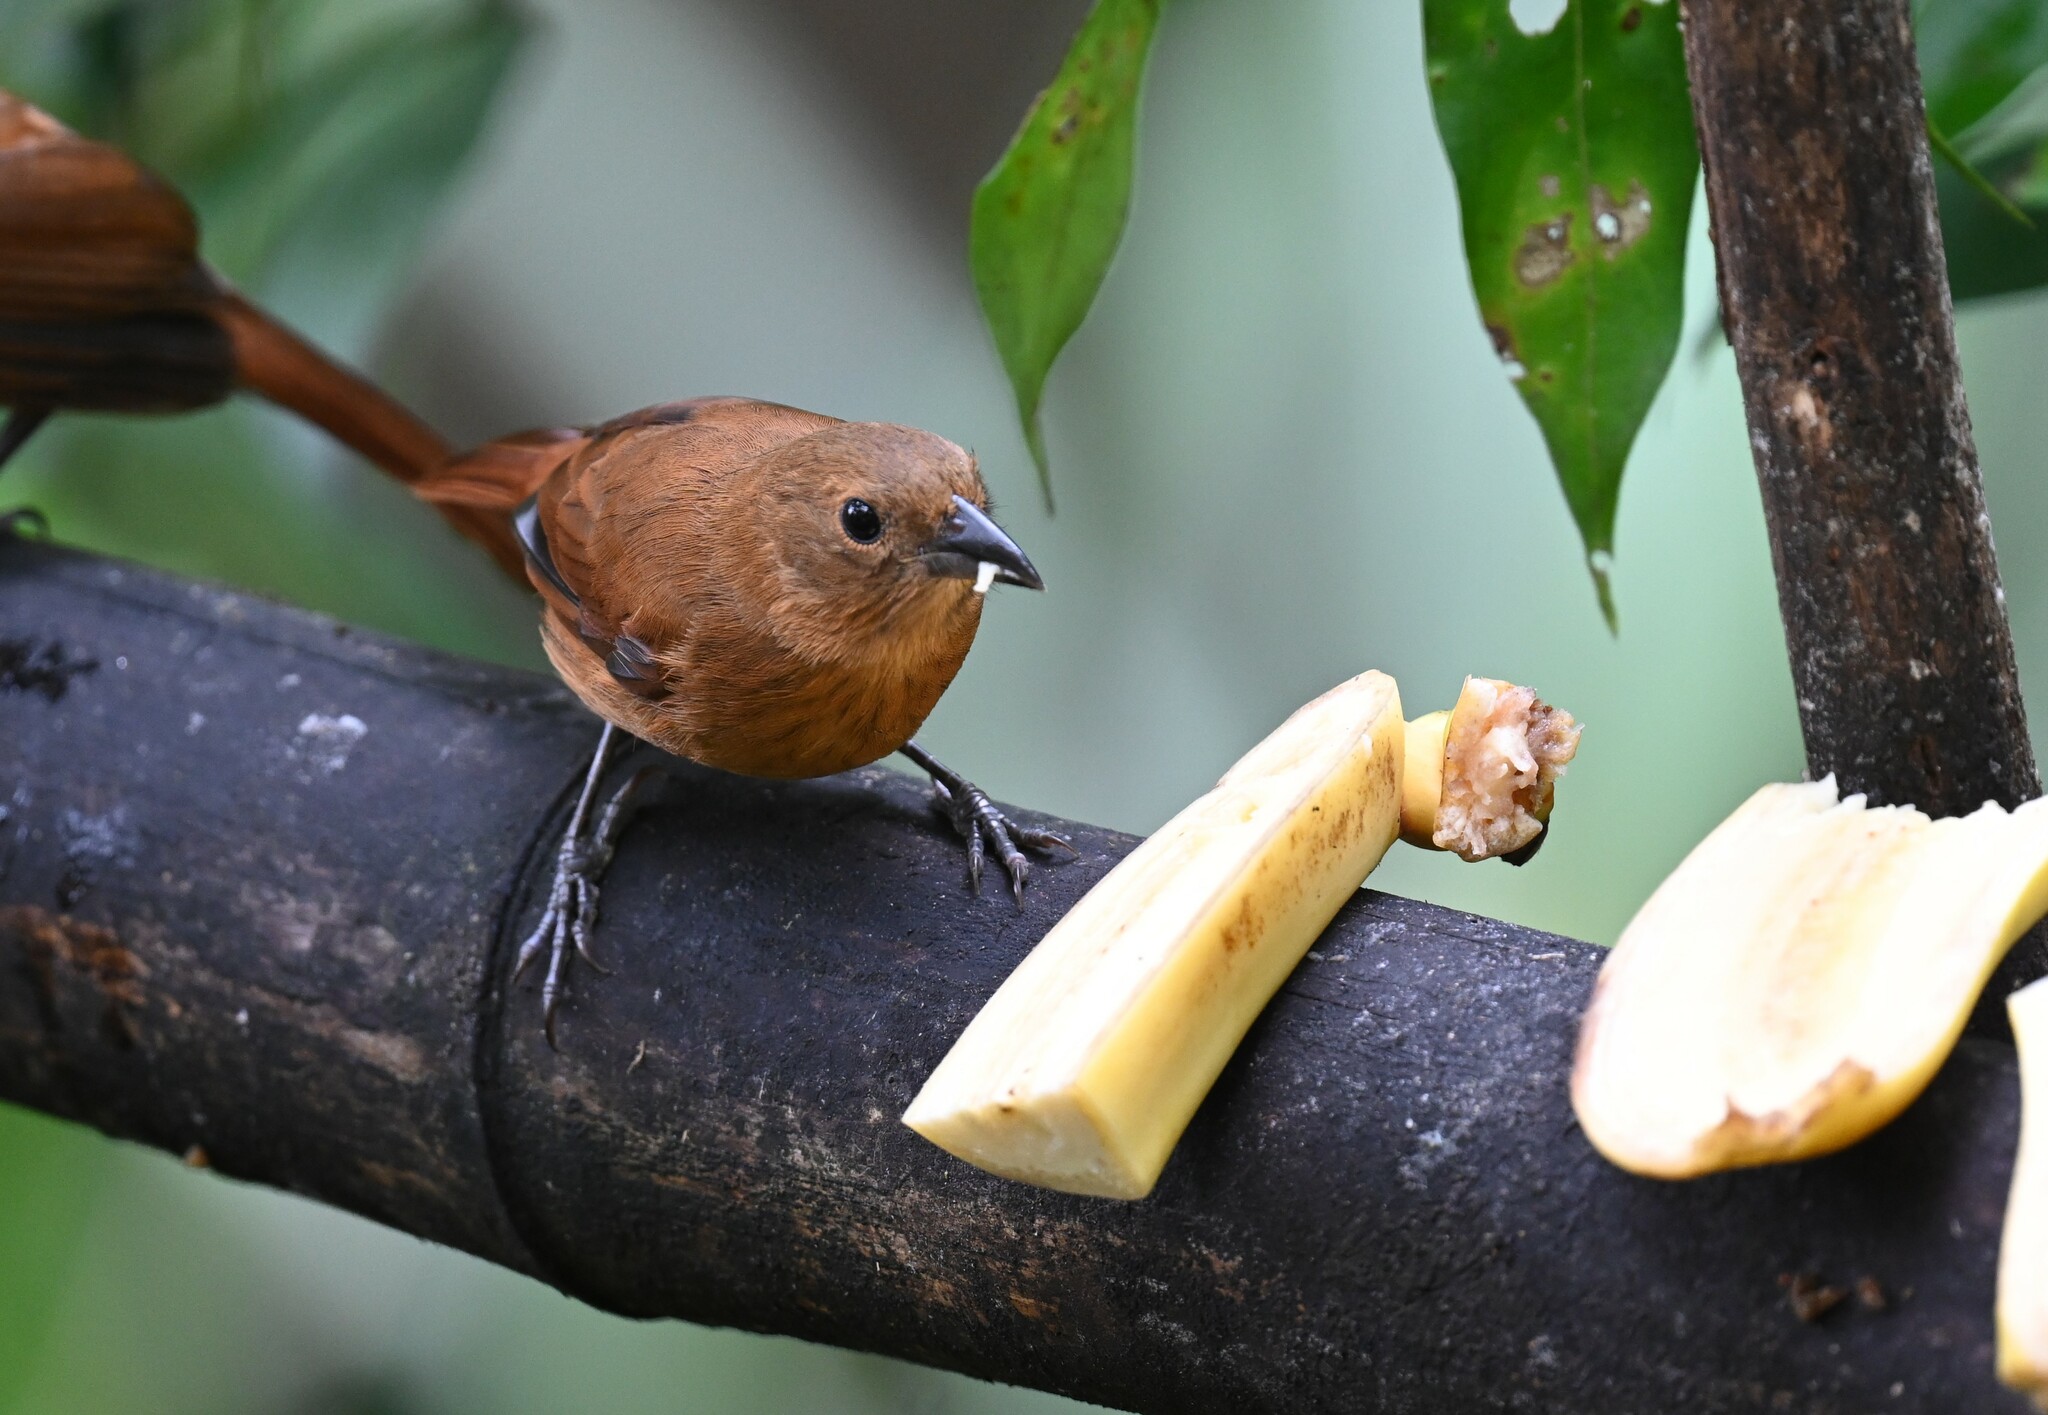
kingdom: Animalia
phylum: Chordata
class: Aves
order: Passeriformes
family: Thraupidae
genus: Tachyphonus
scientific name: Tachyphonus rufus
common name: White-lined tanager
